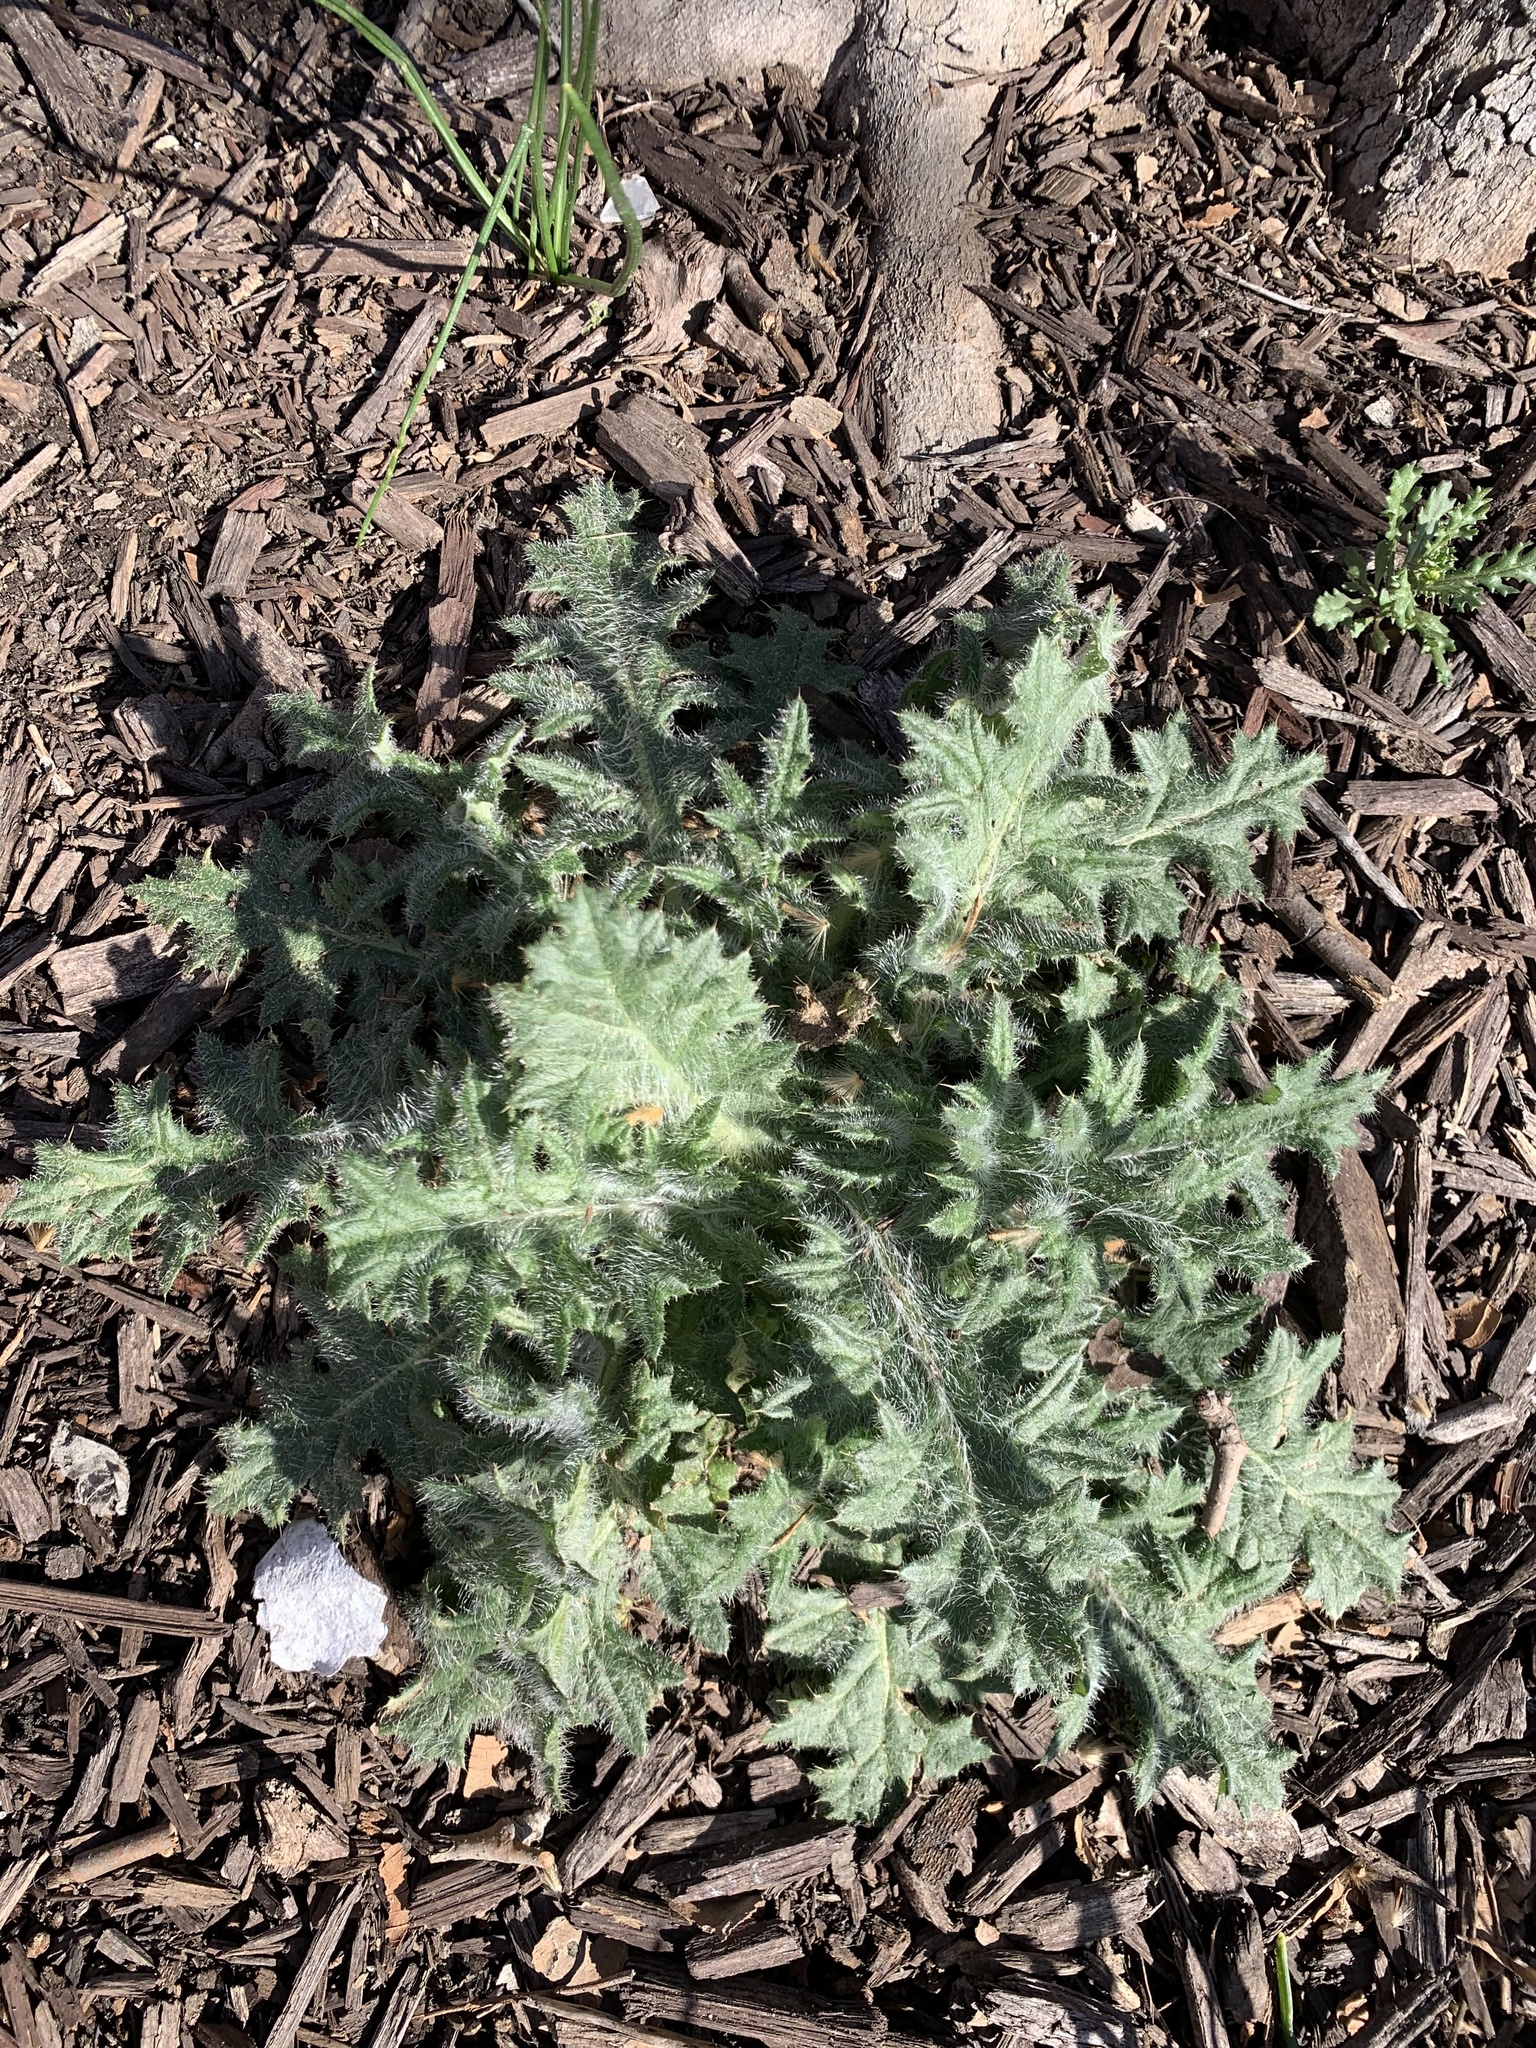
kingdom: Plantae
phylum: Tracheophyta
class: Magnoliopsida
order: Asterales
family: Asteraceae
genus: Cirsium
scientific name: Cirsium vulgare
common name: Bull thistle
